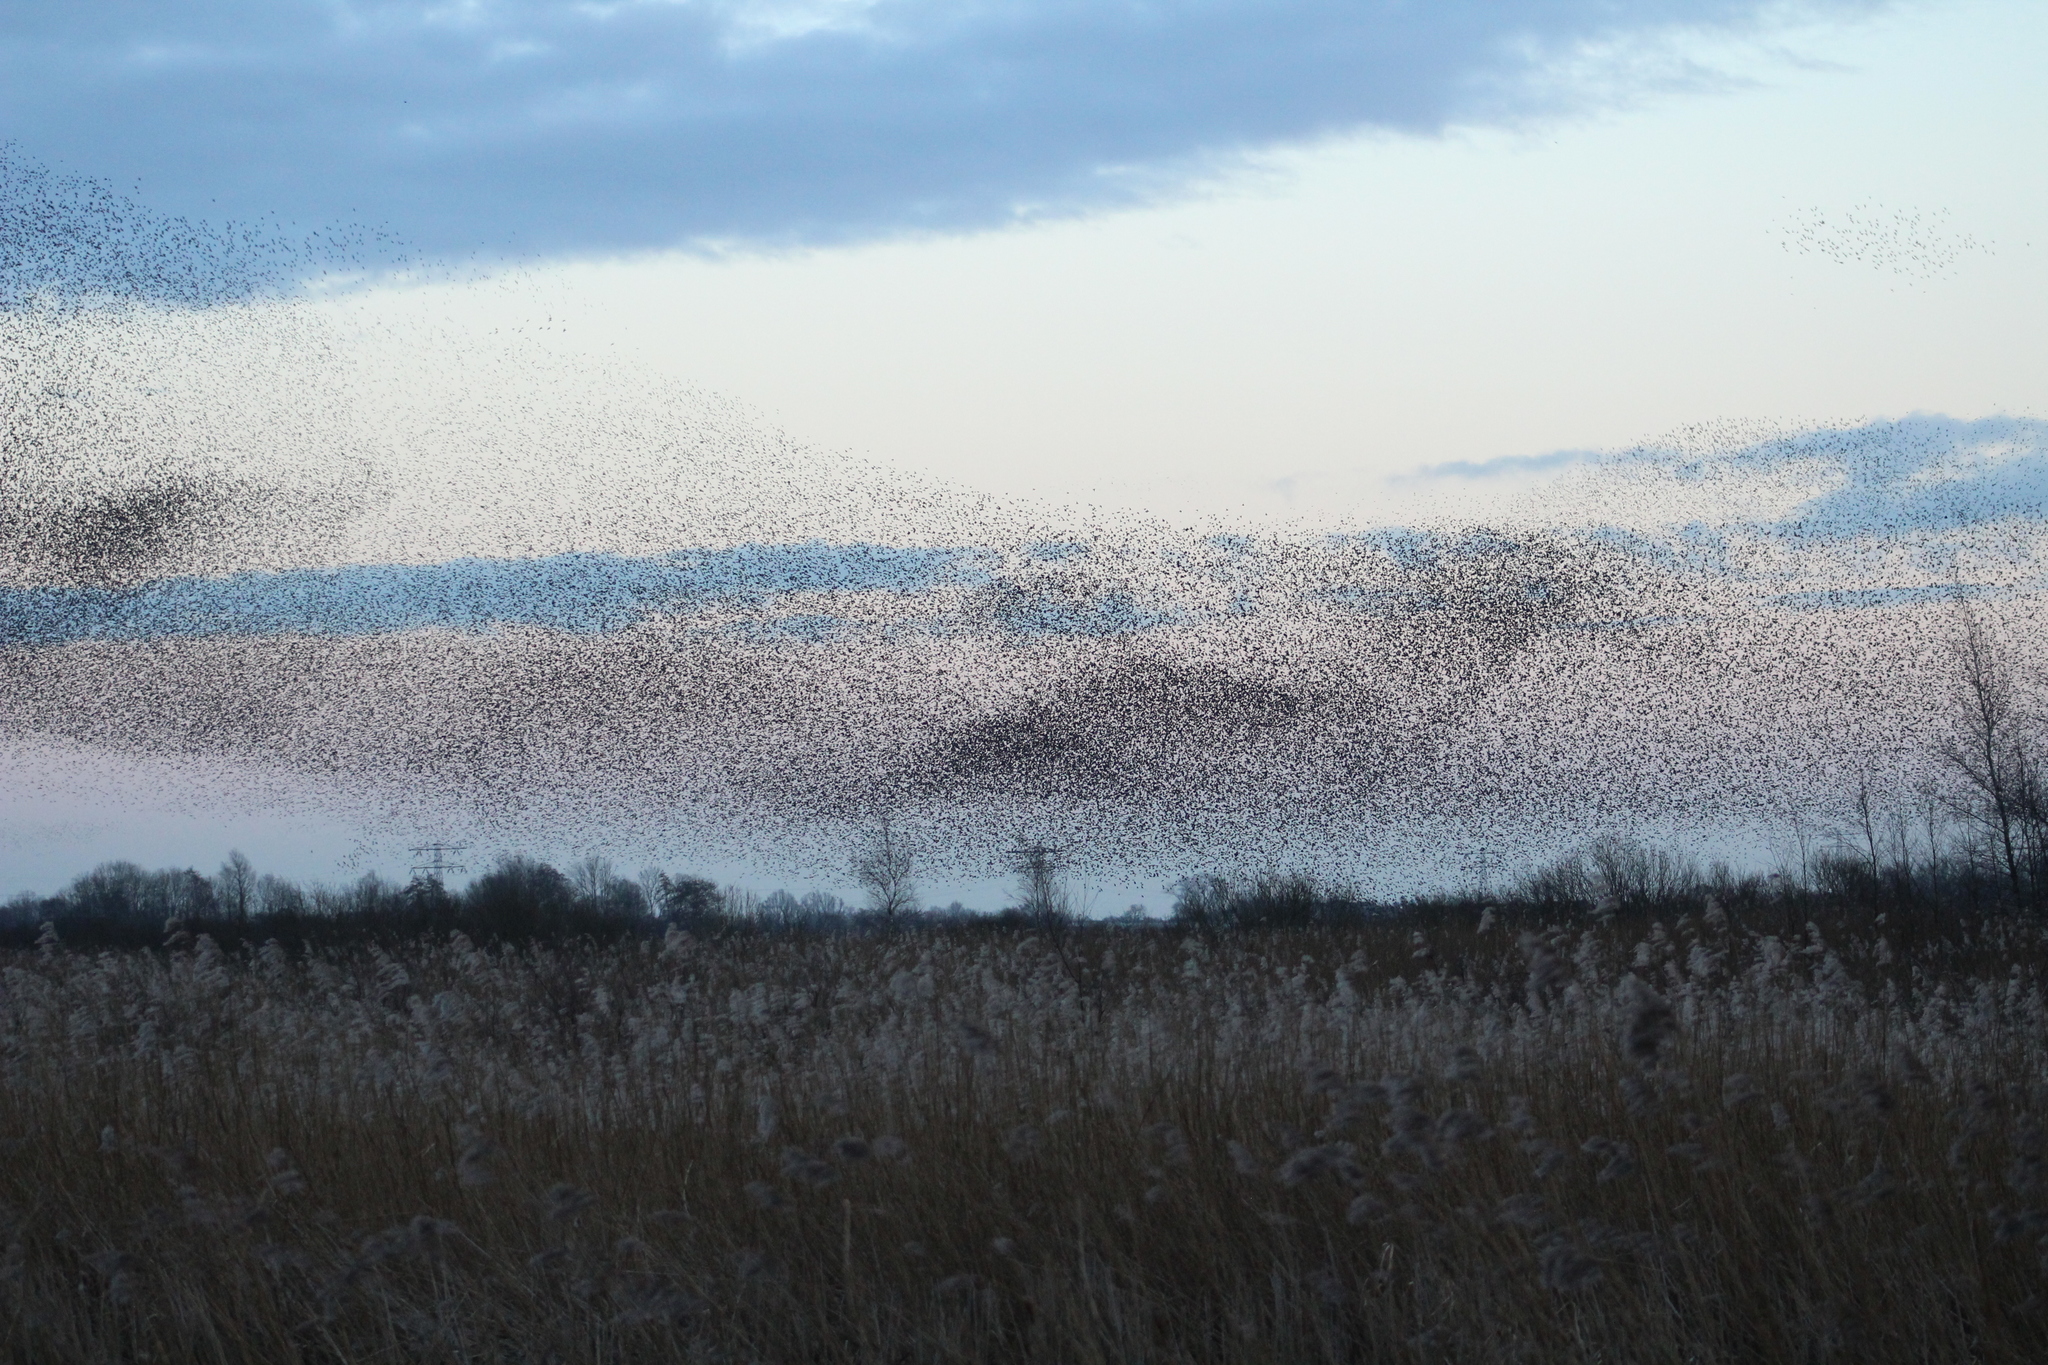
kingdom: Animalia
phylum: Chordata
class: Aves
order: Passeriformes
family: Sturnidae
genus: Sturnus
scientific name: Sturnus vulgaris
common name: Common starling
